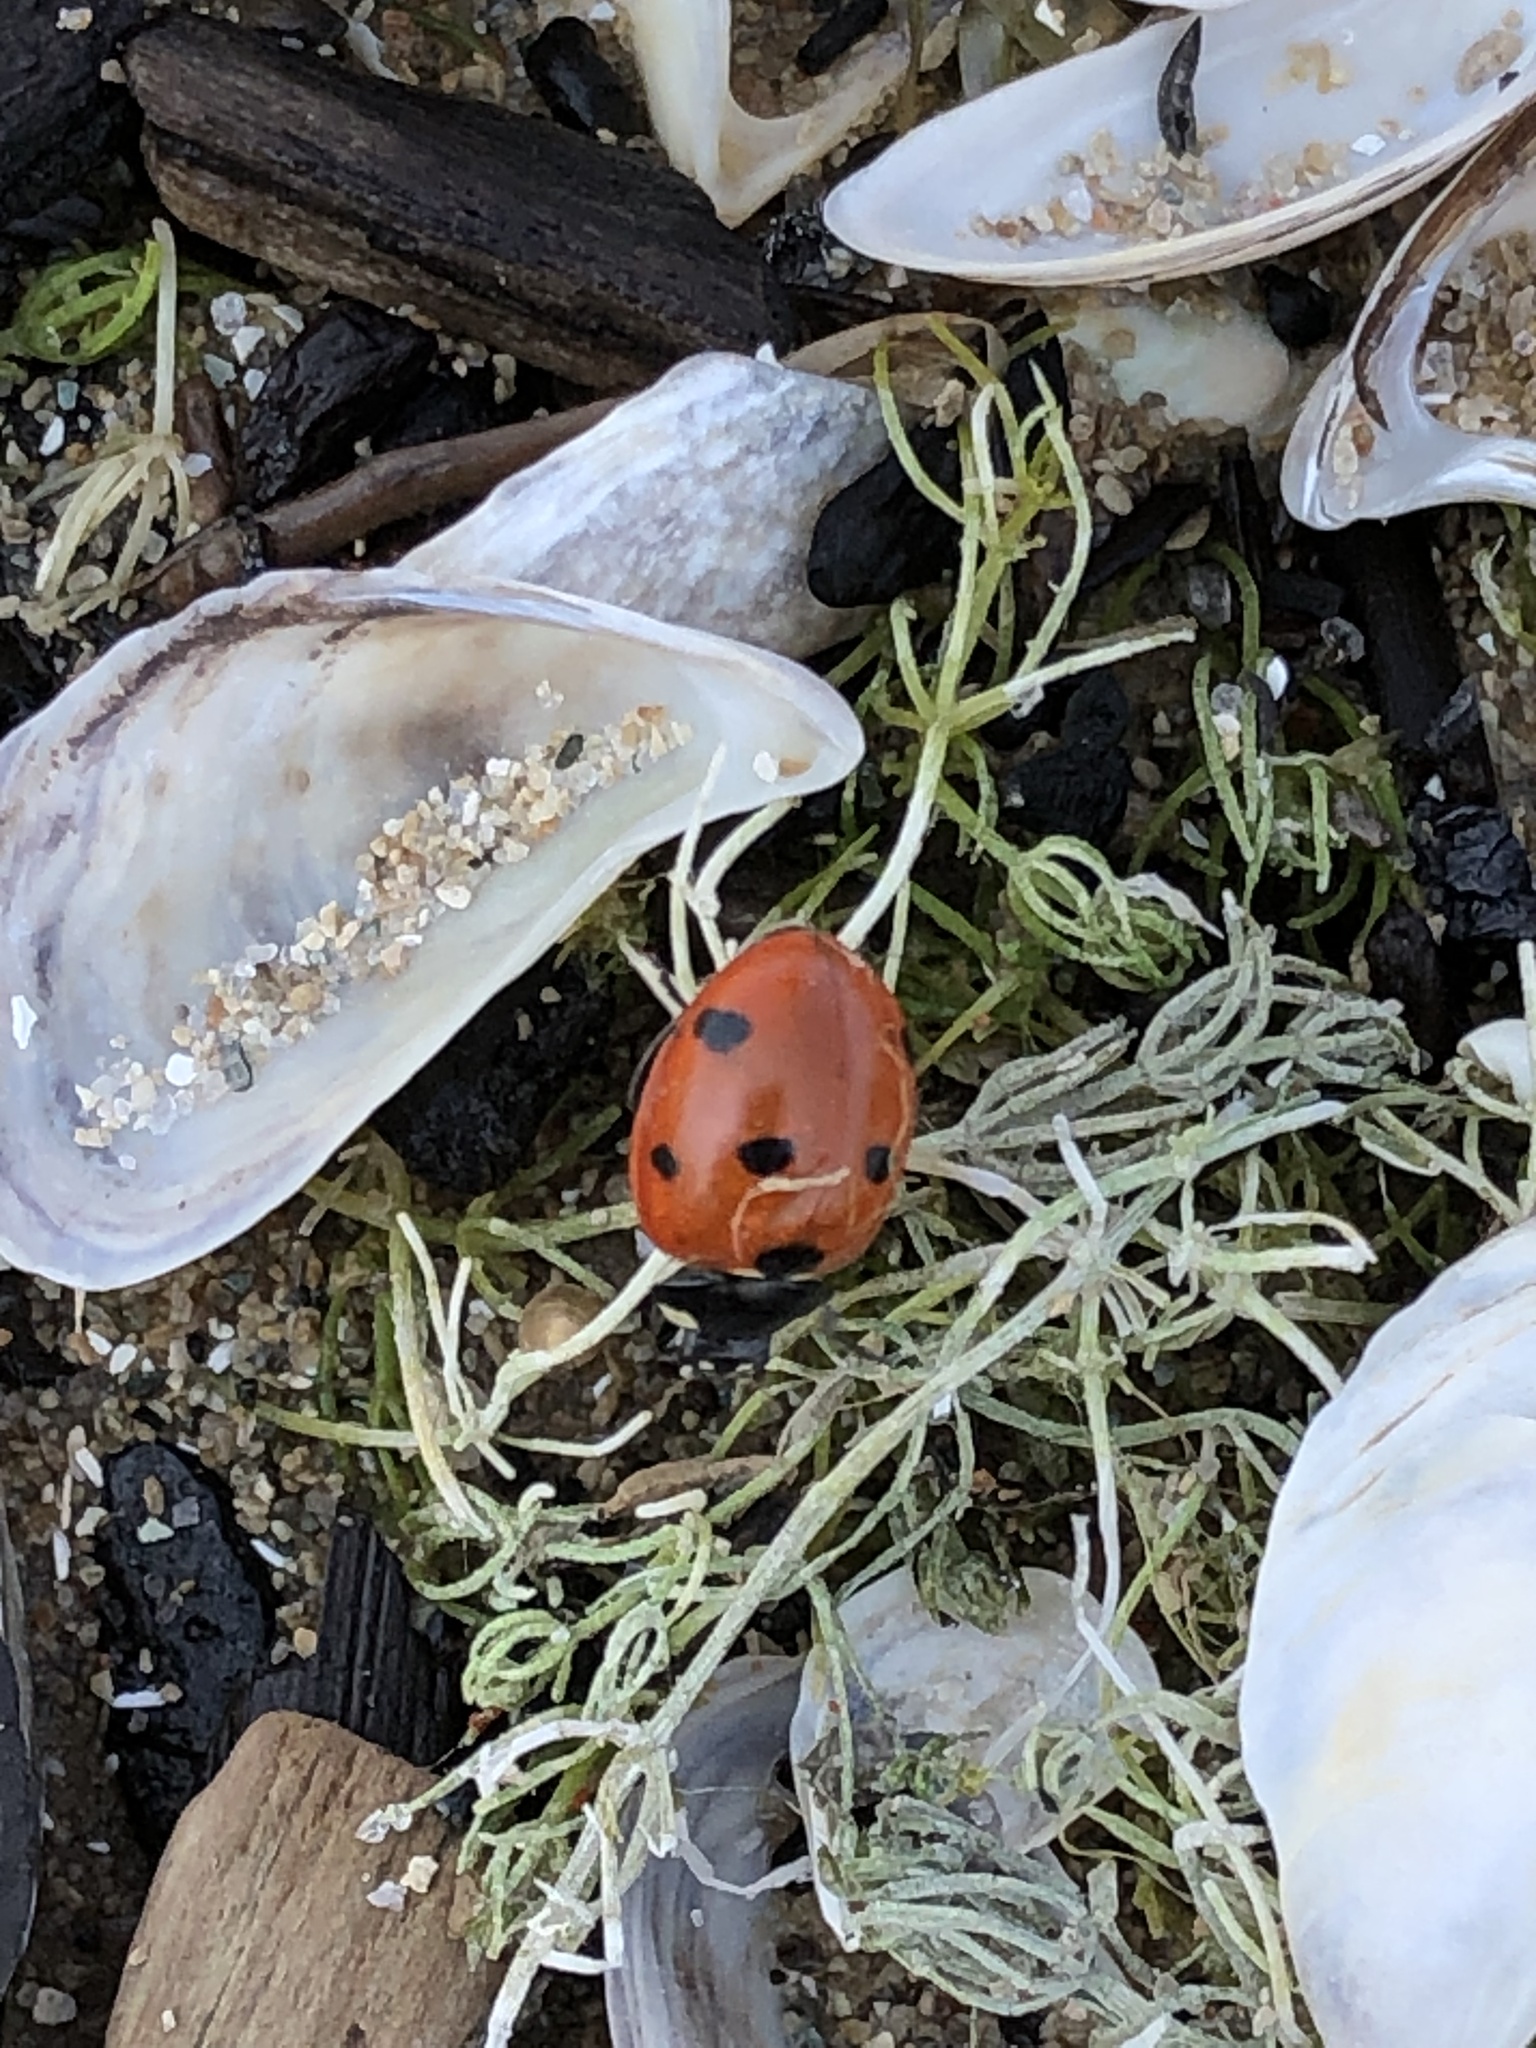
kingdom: Animalia
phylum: Arthropoda
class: Insecta
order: Coleoptera
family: Coccinellidae
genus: Coccinella
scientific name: Coccinella septempunctata
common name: Sevenspotted lady beetle
